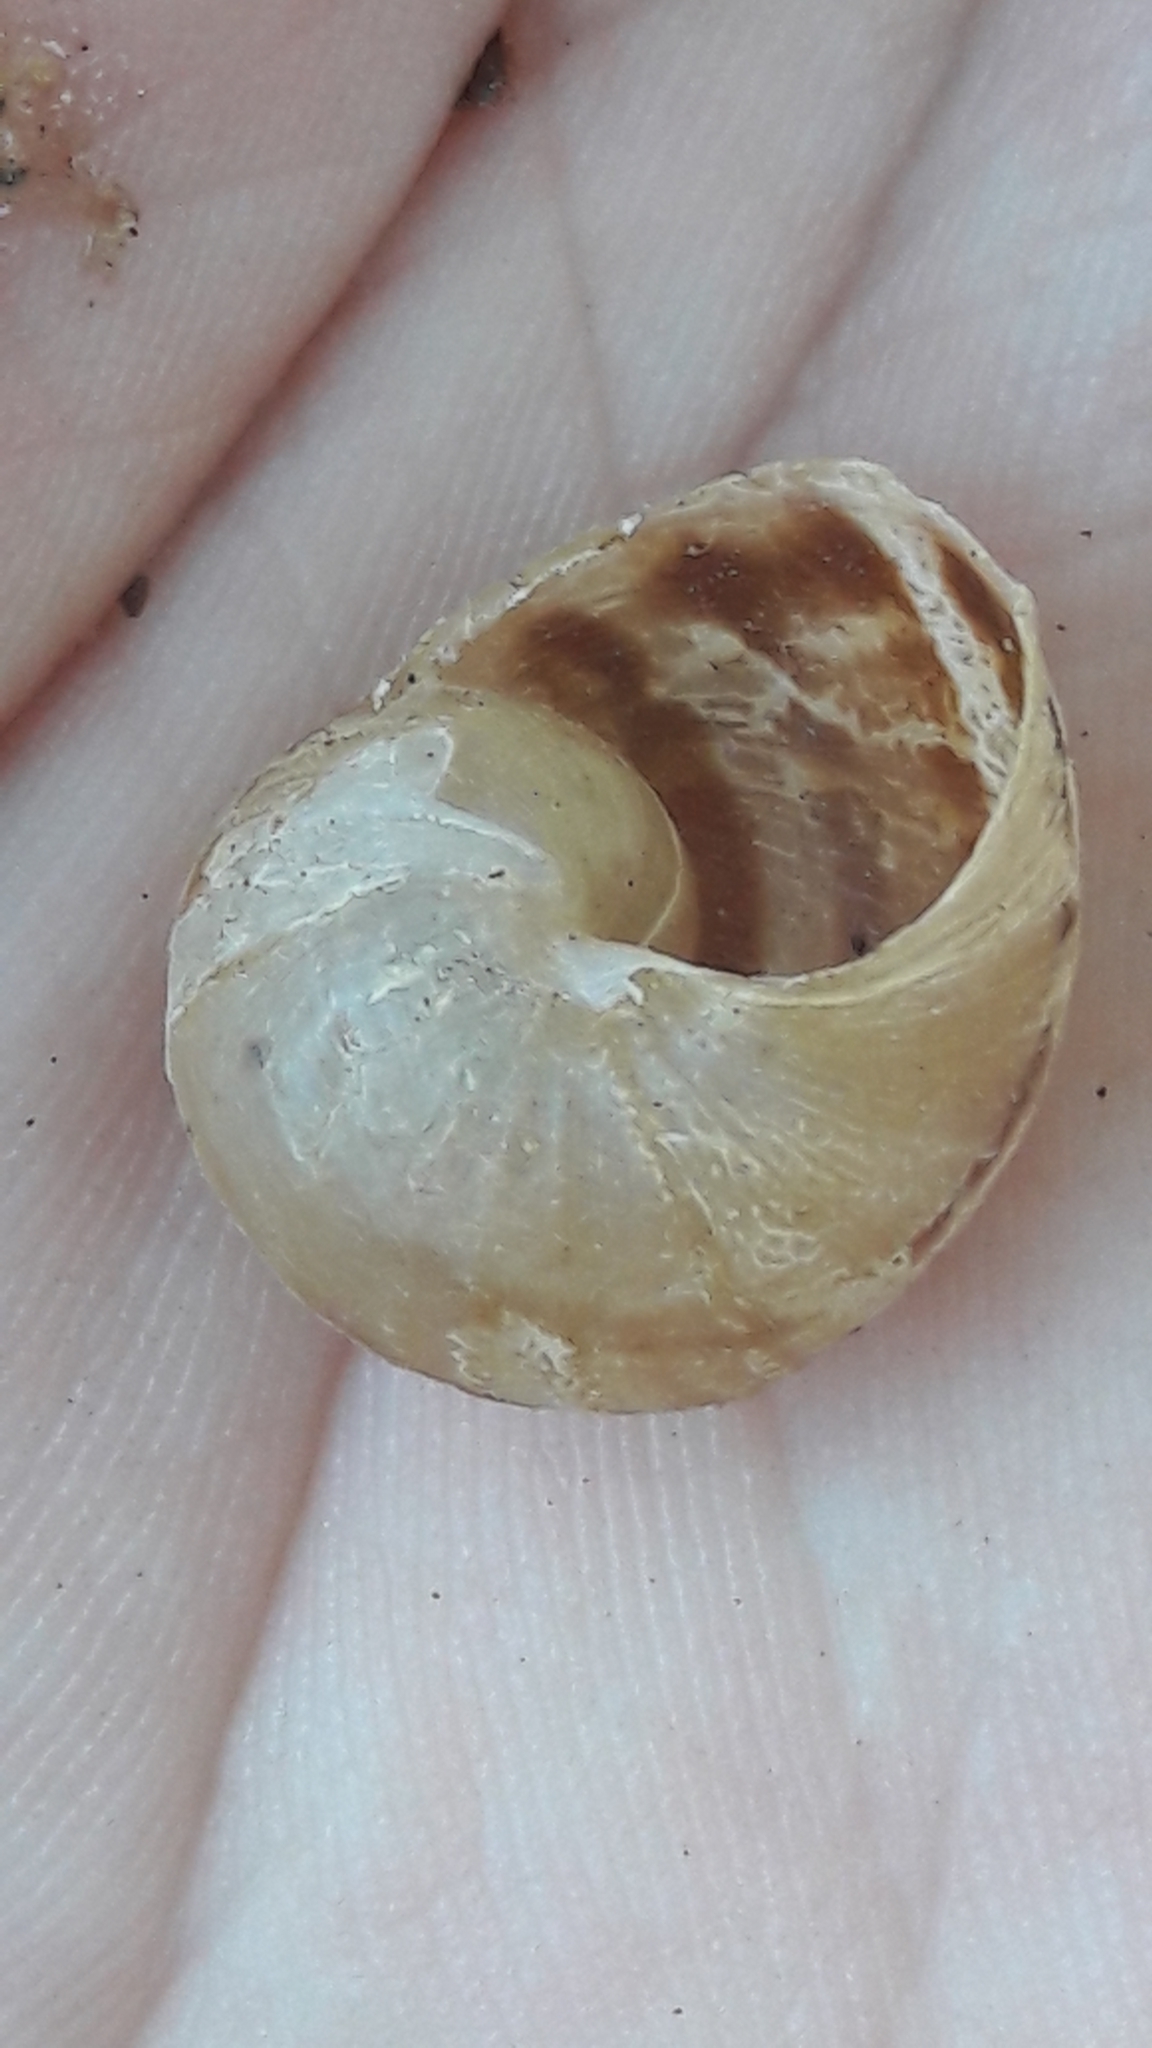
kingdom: Animalia
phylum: Mollusca
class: Gastropoda
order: Stylommatophora
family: Helicidae
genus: Cornu
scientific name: Cornu aspersum
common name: Brown garden snail
